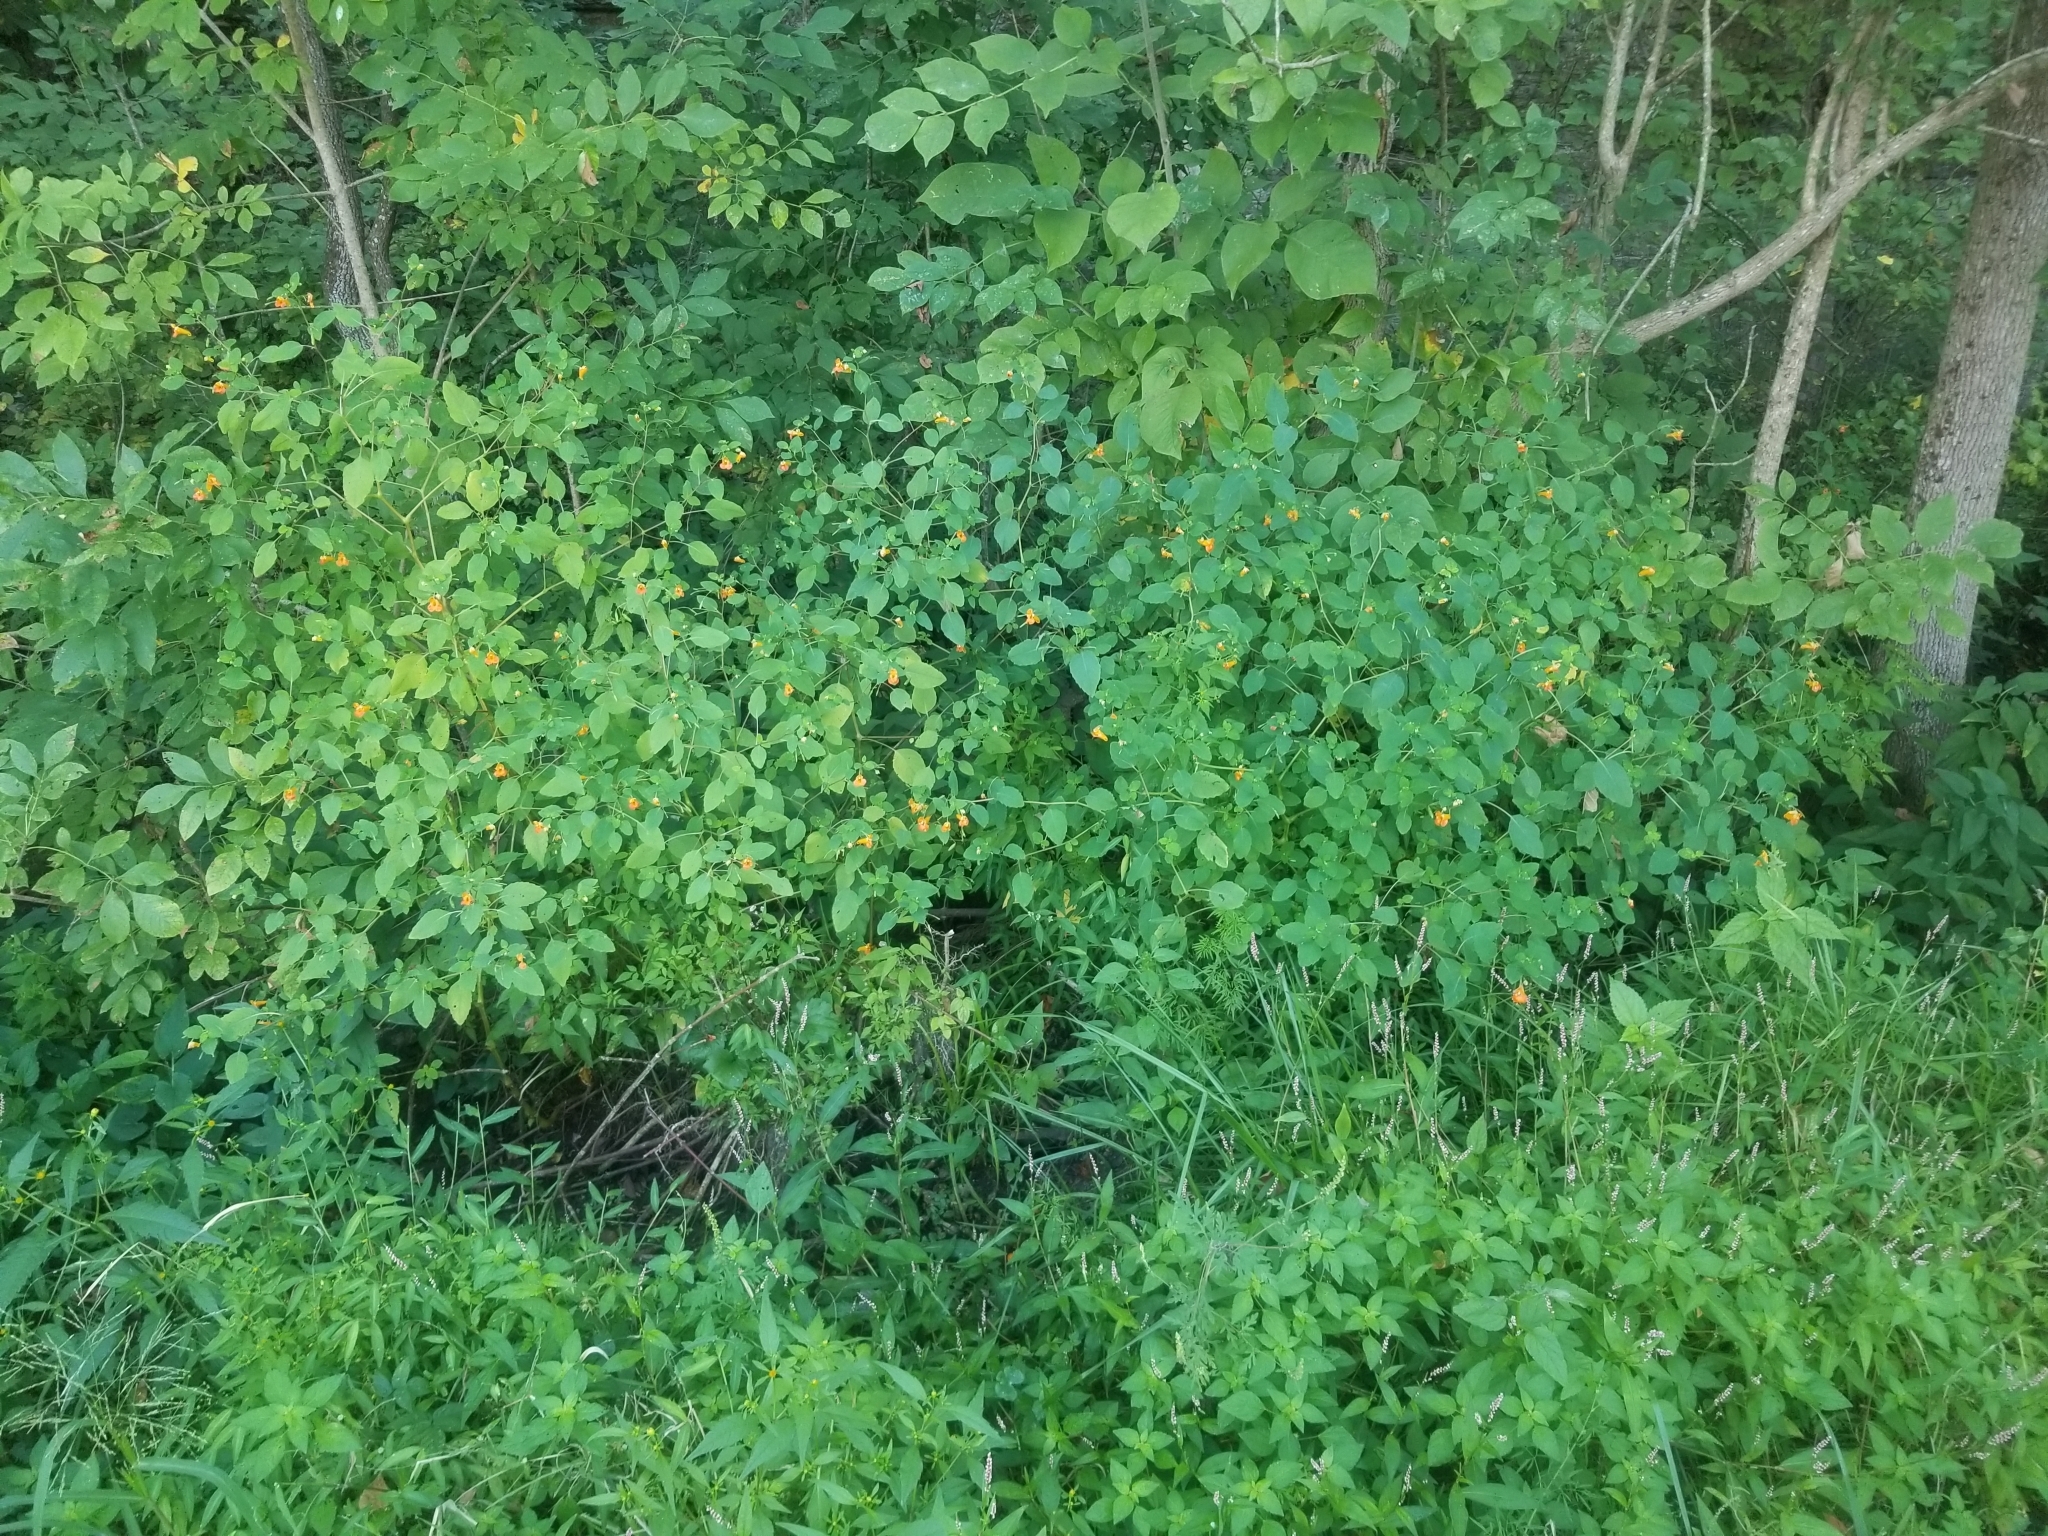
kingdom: Plantae
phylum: Tracheophyta
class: Magnoliopsida
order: Ericales
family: Balsaminaceae
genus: Impatiens
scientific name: Impatiens capensis
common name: Orange balsam
